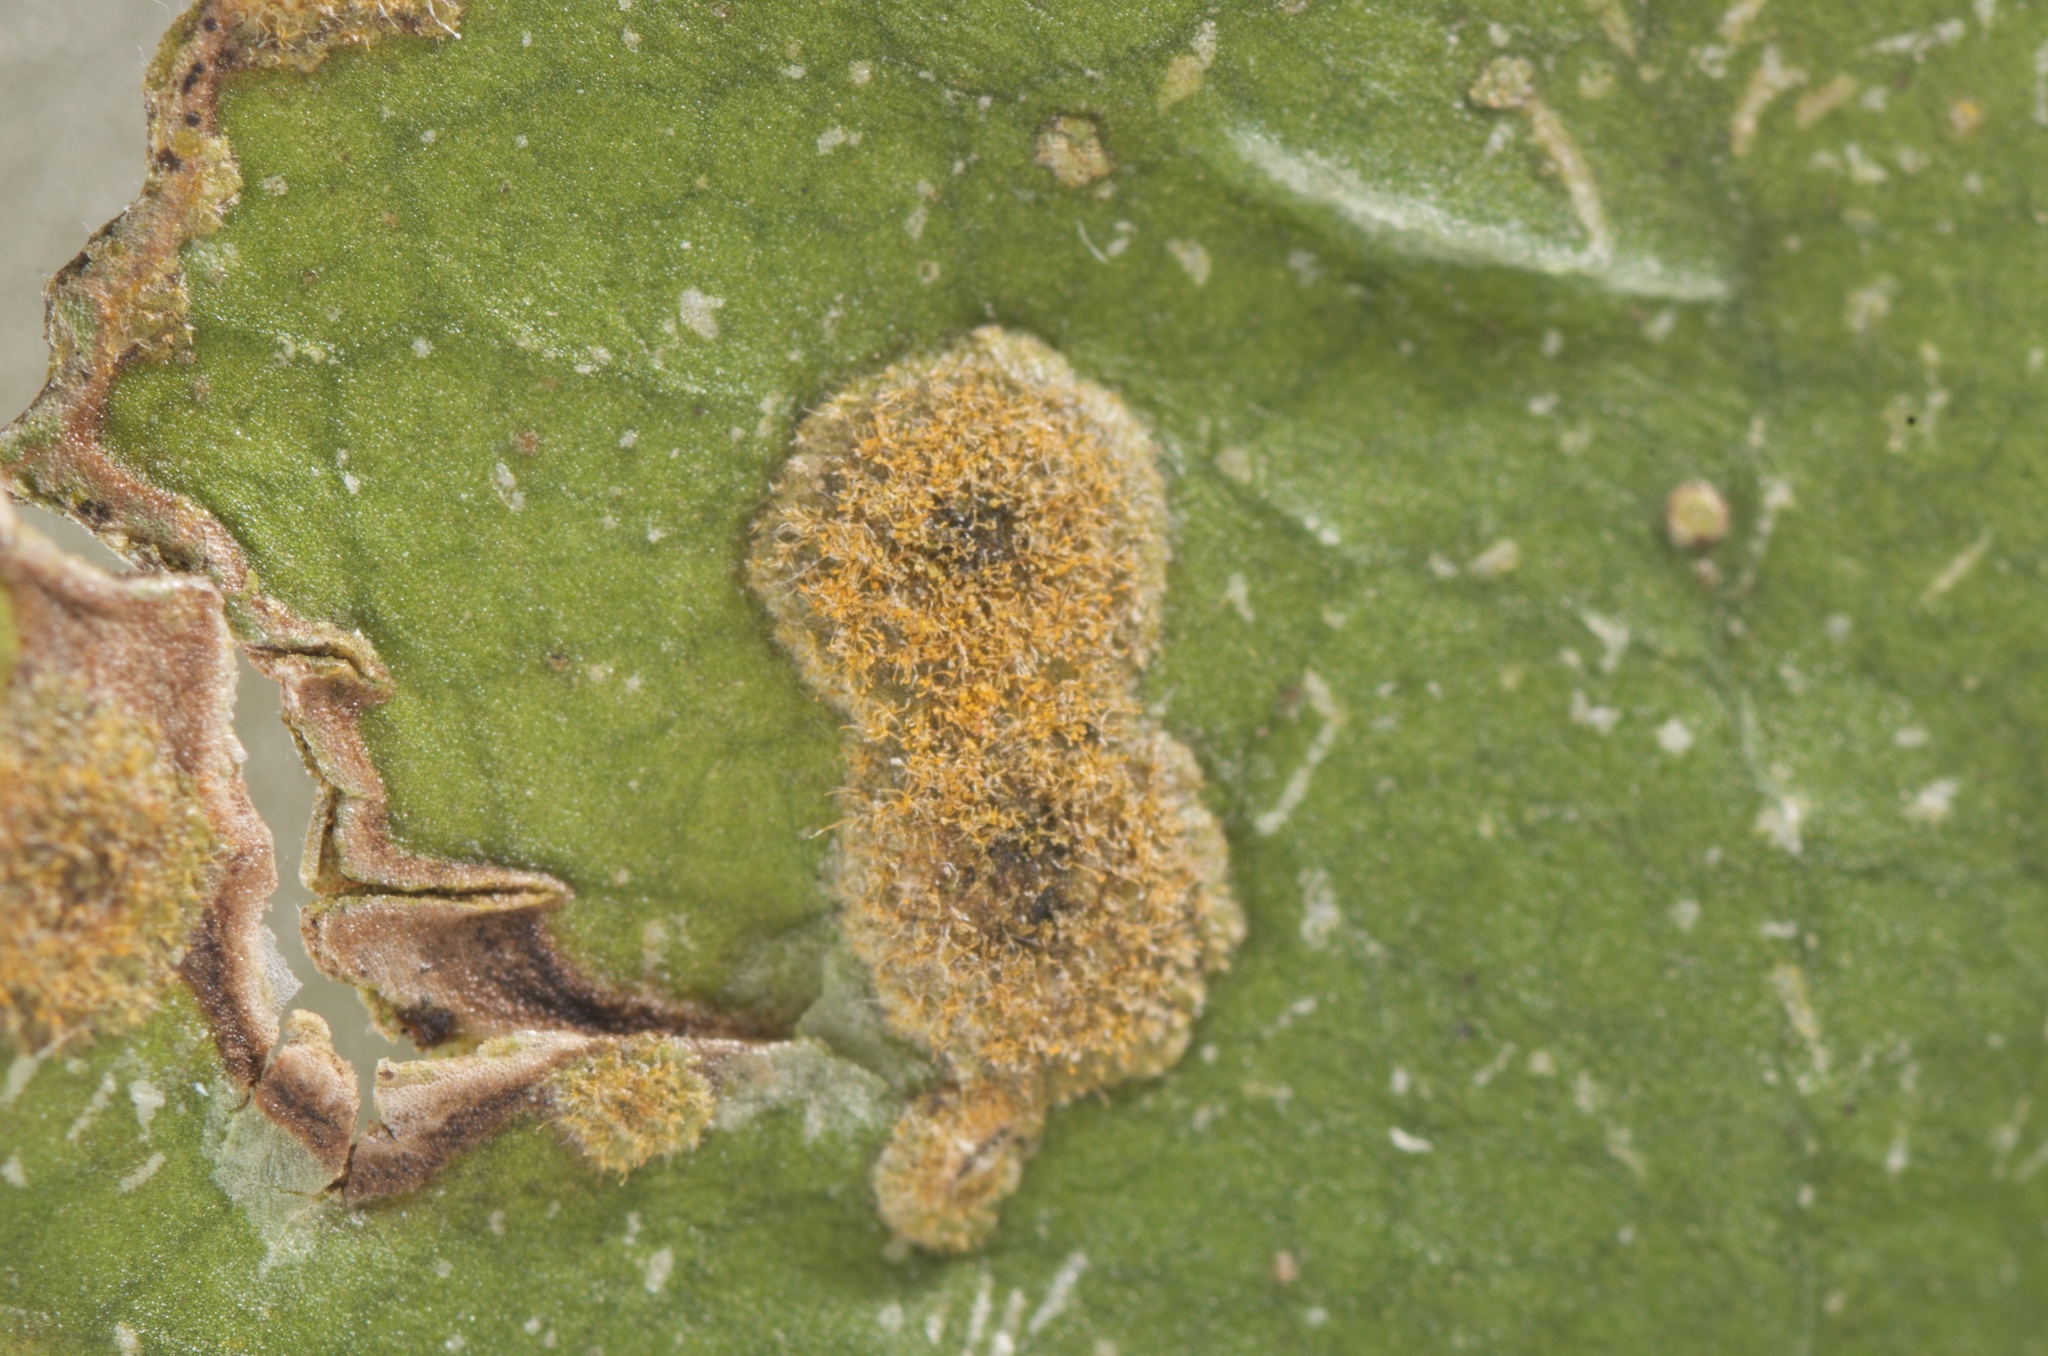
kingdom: Plantae
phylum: Chlorophyta
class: Ulvophyceae
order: Trentepohliales
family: Trentepohliaceae
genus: Cephaleuros
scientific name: Cephaleuros virescens
